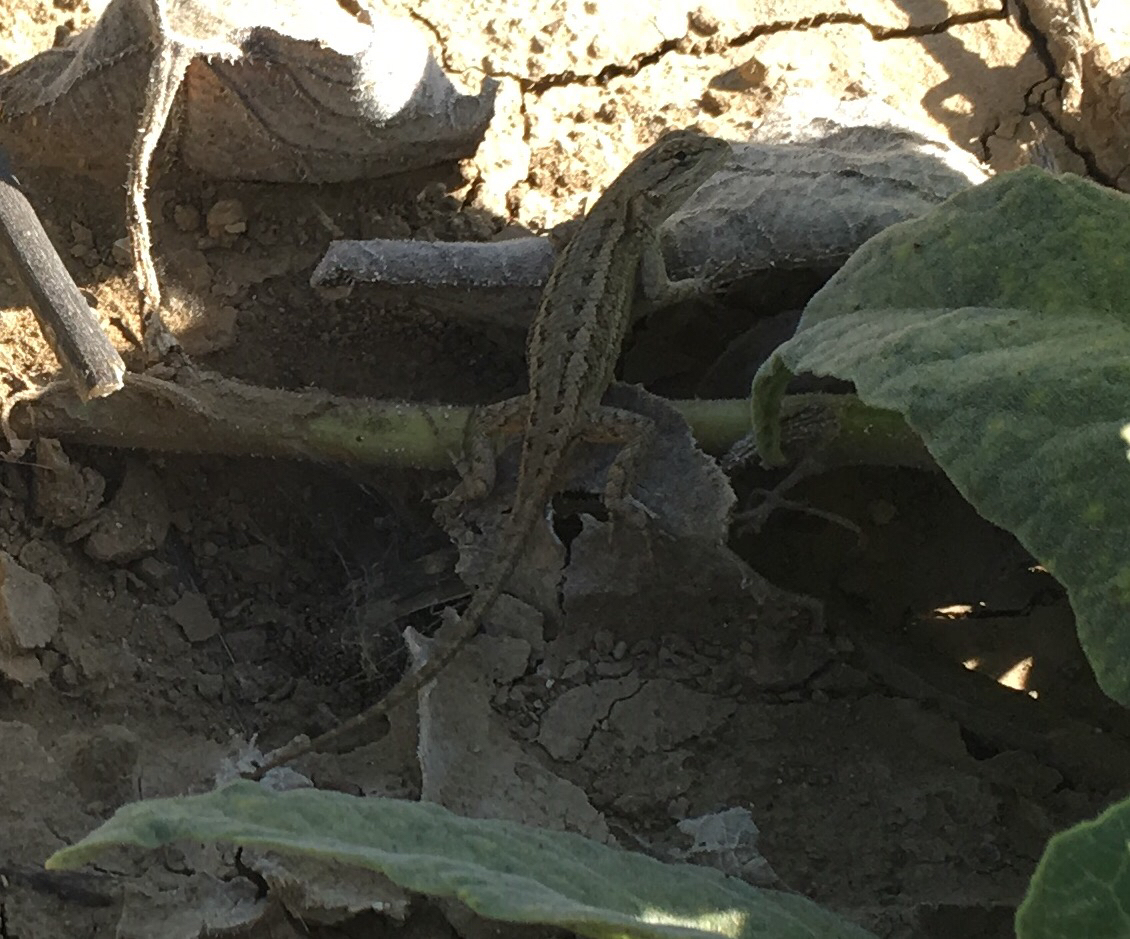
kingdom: Animalia
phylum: Chordata
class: Squamata
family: Phrynosomatidae
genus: Sceloporus
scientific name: Sceloporus occidentalis
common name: Western fence lizard
